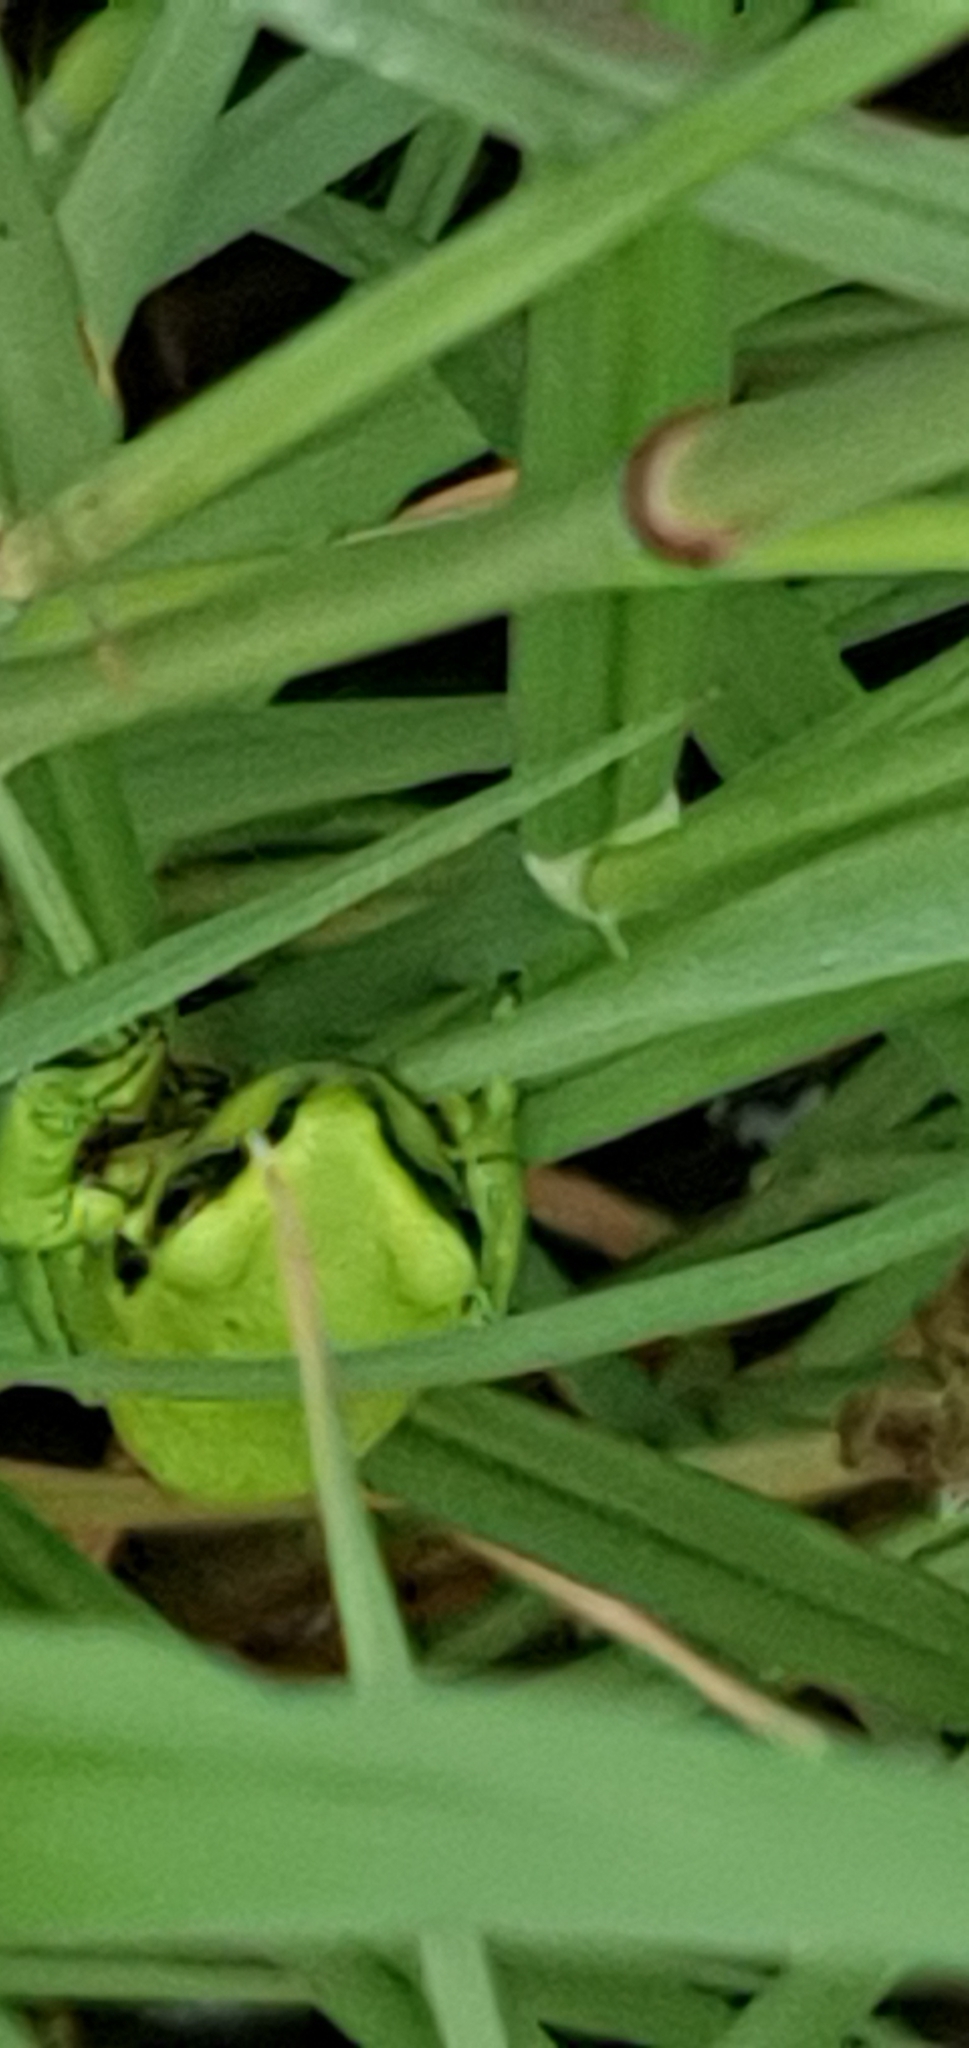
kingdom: Animalia
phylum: Chordata
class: Amphibia
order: Anura
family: Pelodryadidae
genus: Ranoidea
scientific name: Ranoidea caerulea
